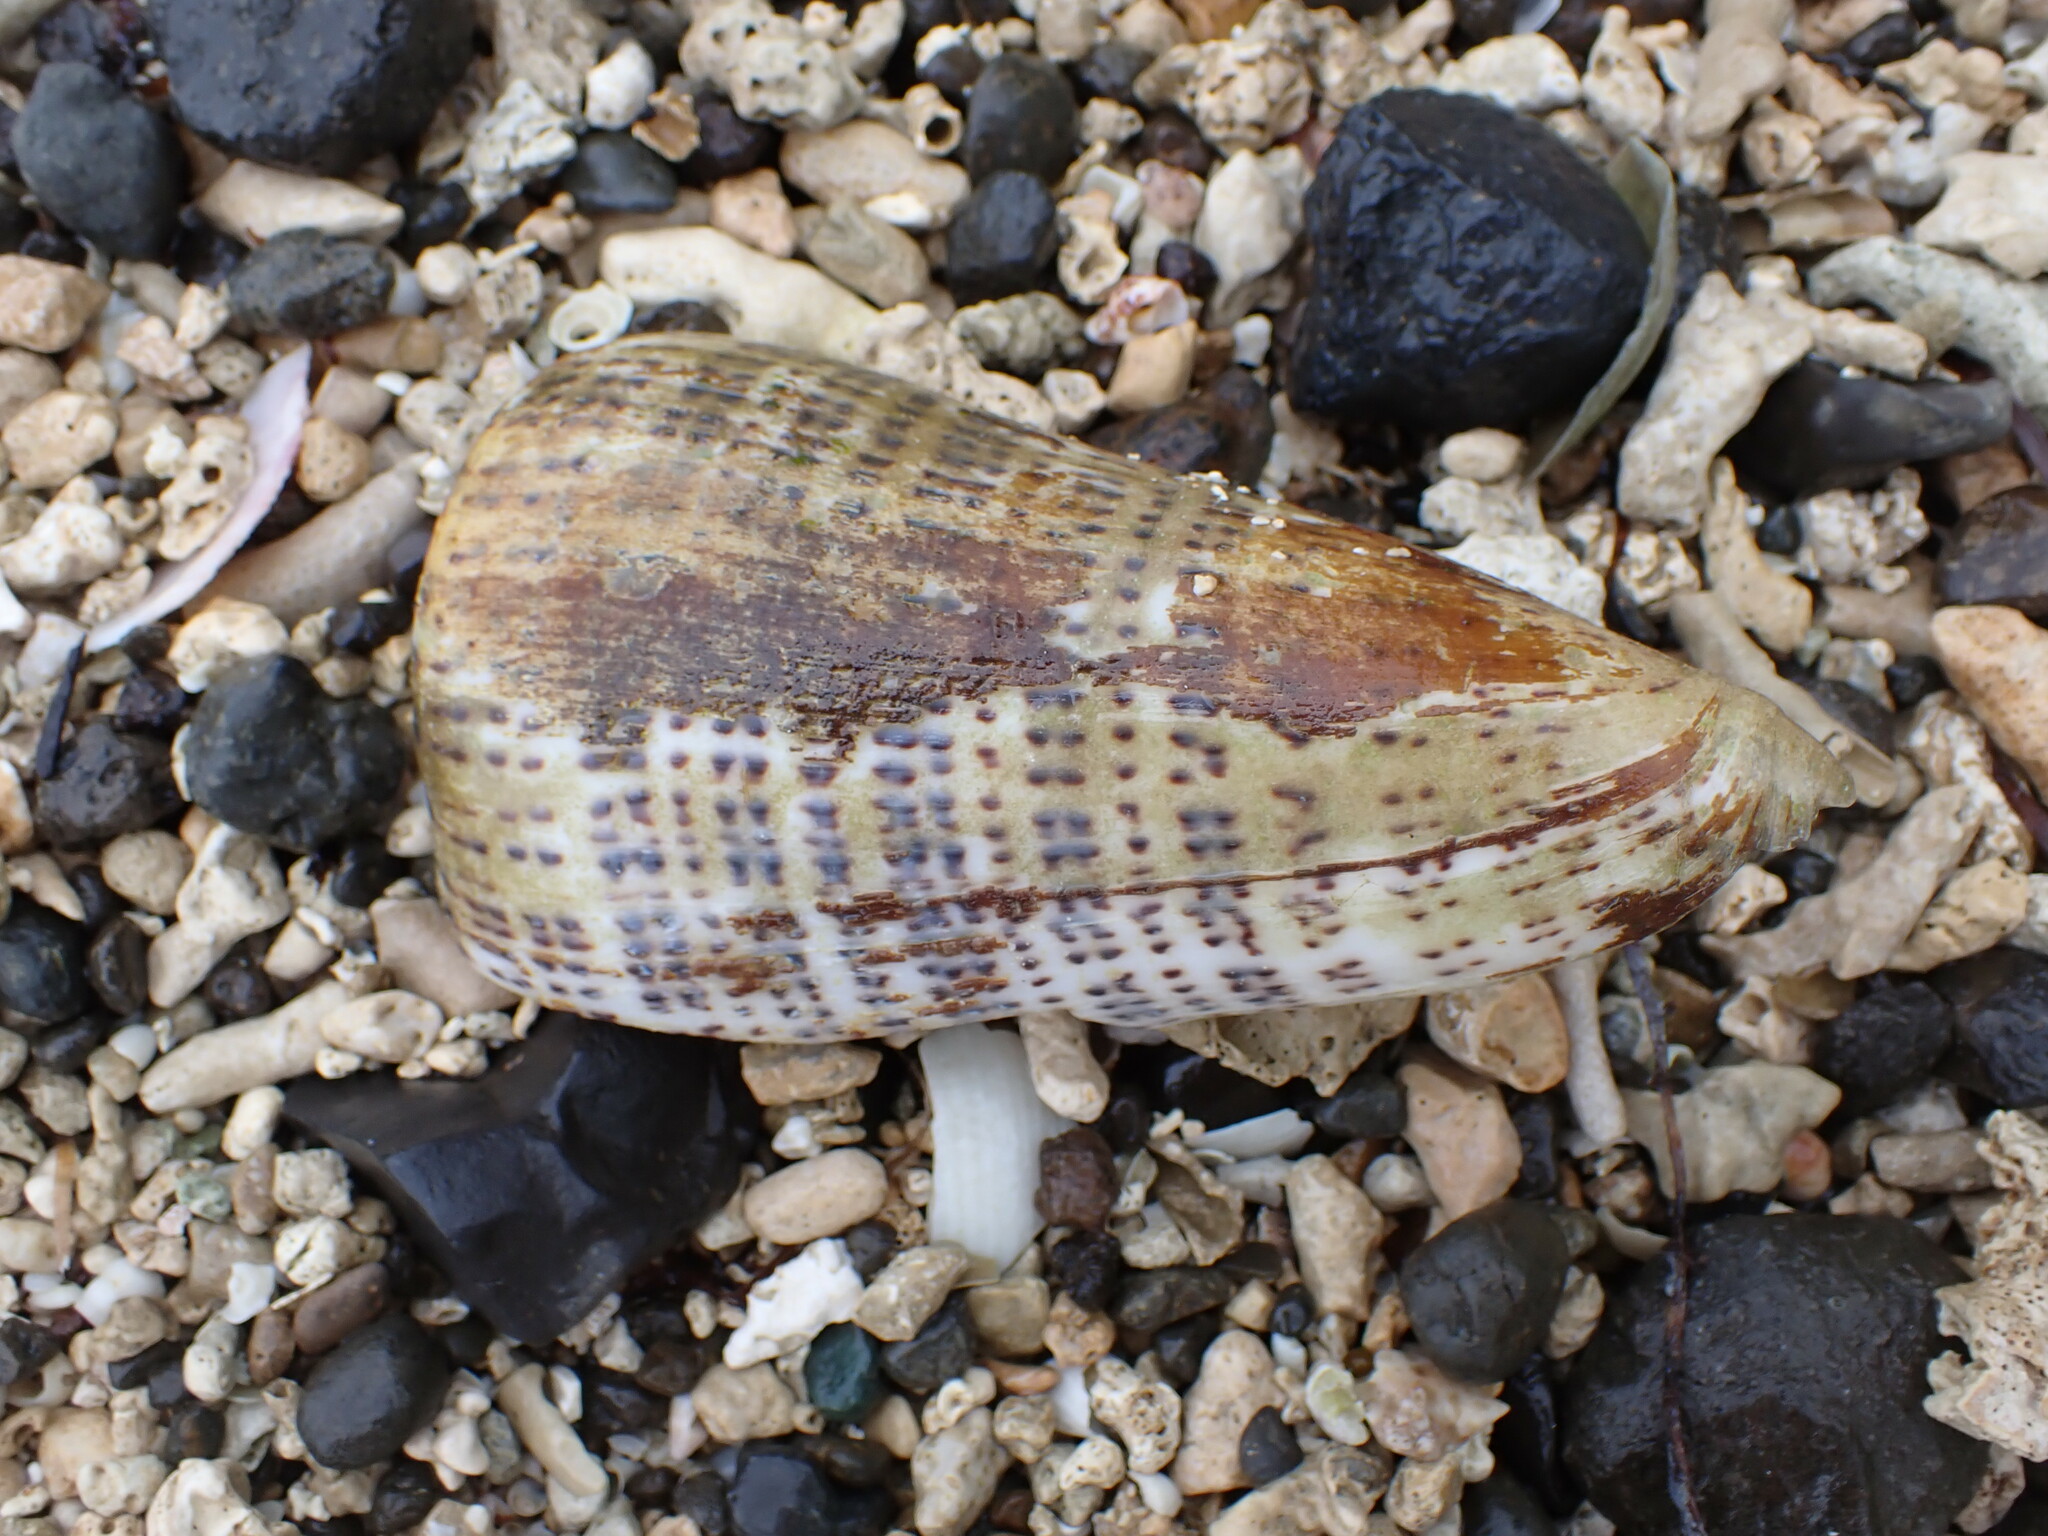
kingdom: Animalia
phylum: Mollusca
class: Gastropoda
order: Neogastropoda
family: Conidae
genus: Conus
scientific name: Conus leopardus
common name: Leopard cone
